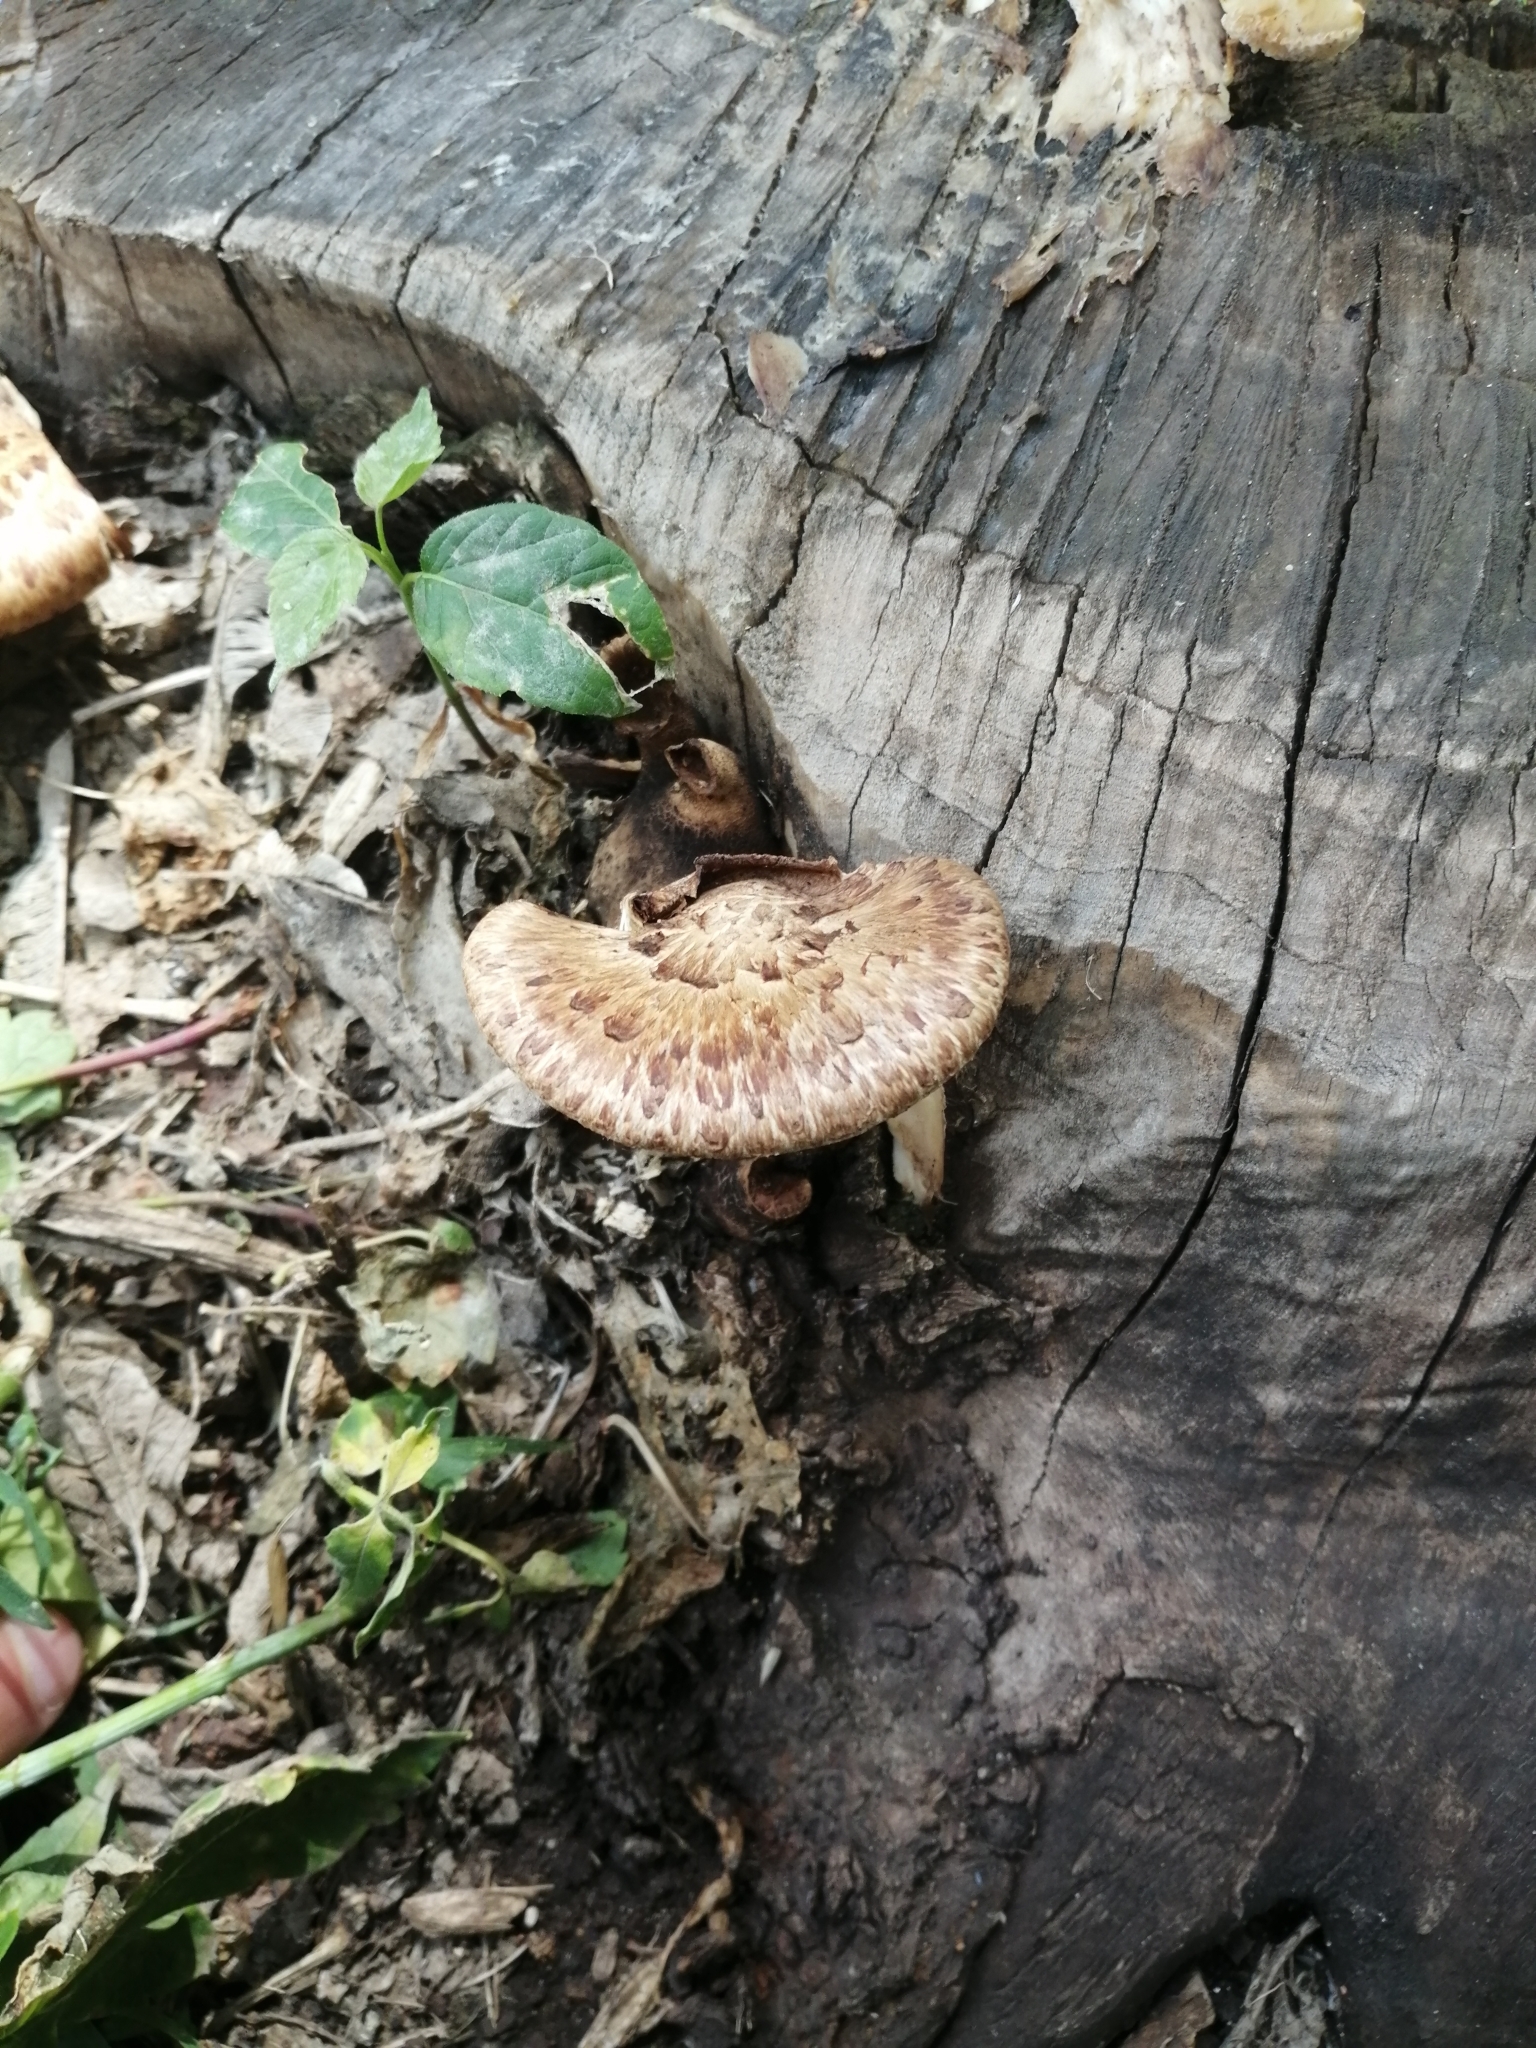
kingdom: Fungi
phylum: Basidiomycota
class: Agaricomycetes
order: Polyporales
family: Polyporaceae
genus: Cerioporus
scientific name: Cerioporus squamosus
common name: Dryad's saddle
